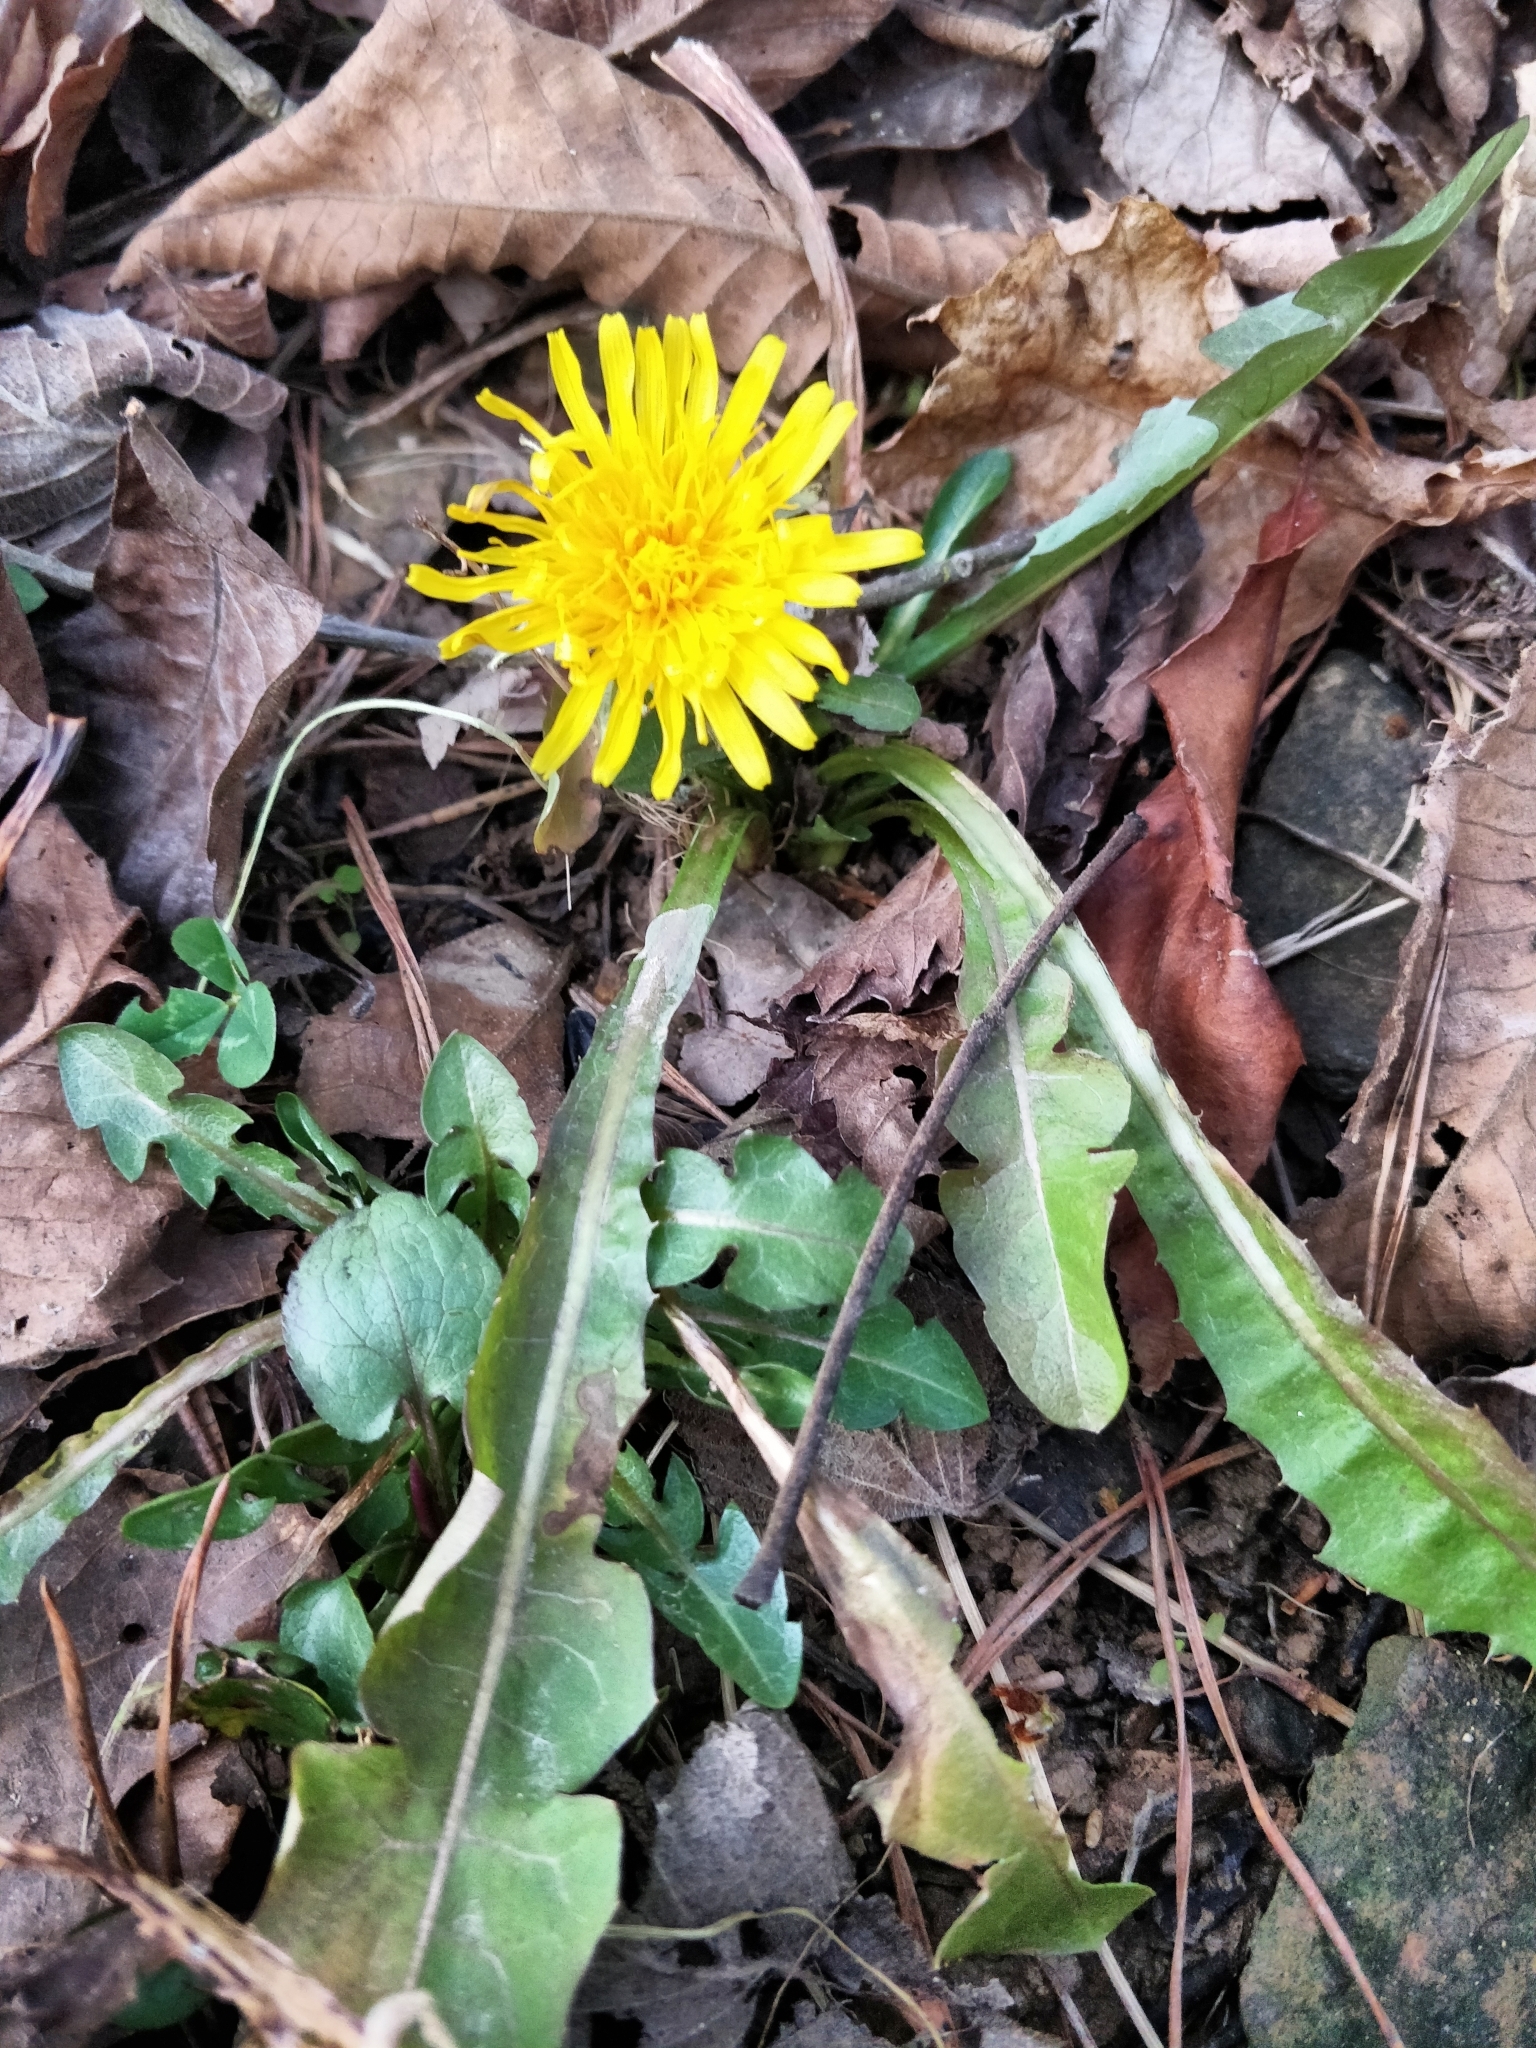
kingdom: Plantae
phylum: Tracheophyta
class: Magnoliopsida
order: Asterales
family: Asteraceae
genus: Taraxacum
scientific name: Taraxacum officinale
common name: Common dandelion
